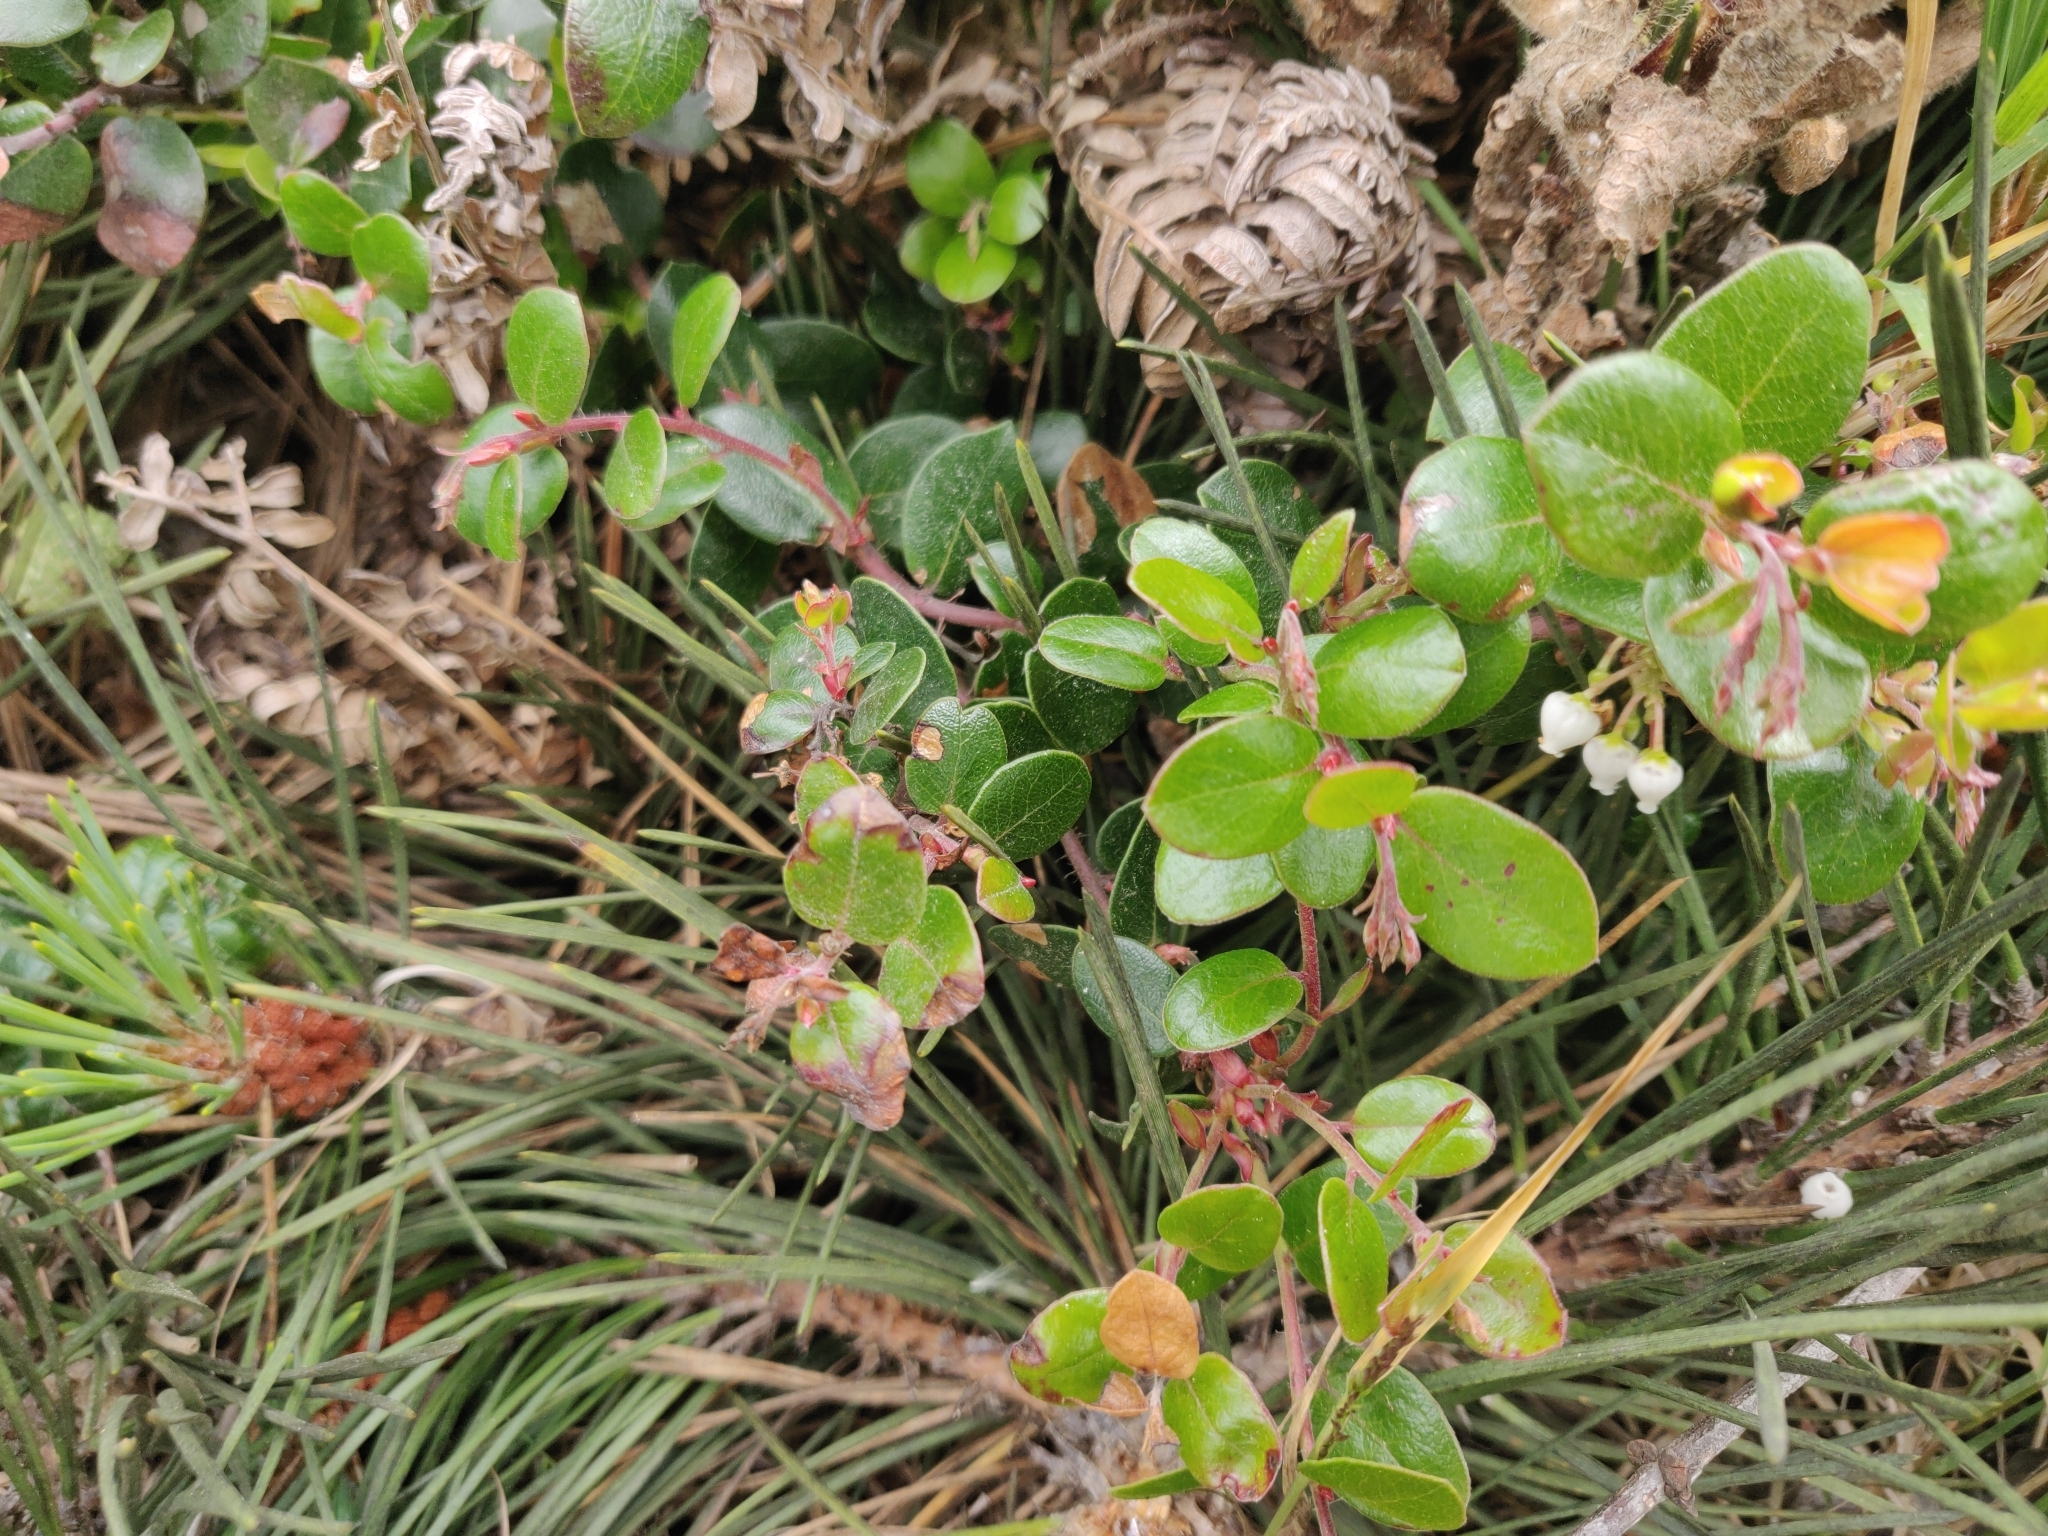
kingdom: Plantae
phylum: Tracheophyta
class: Magnoliopsida
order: Ericales
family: Ericaceae
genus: Arctostaphylos
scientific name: Arctostaphylos nummularia
